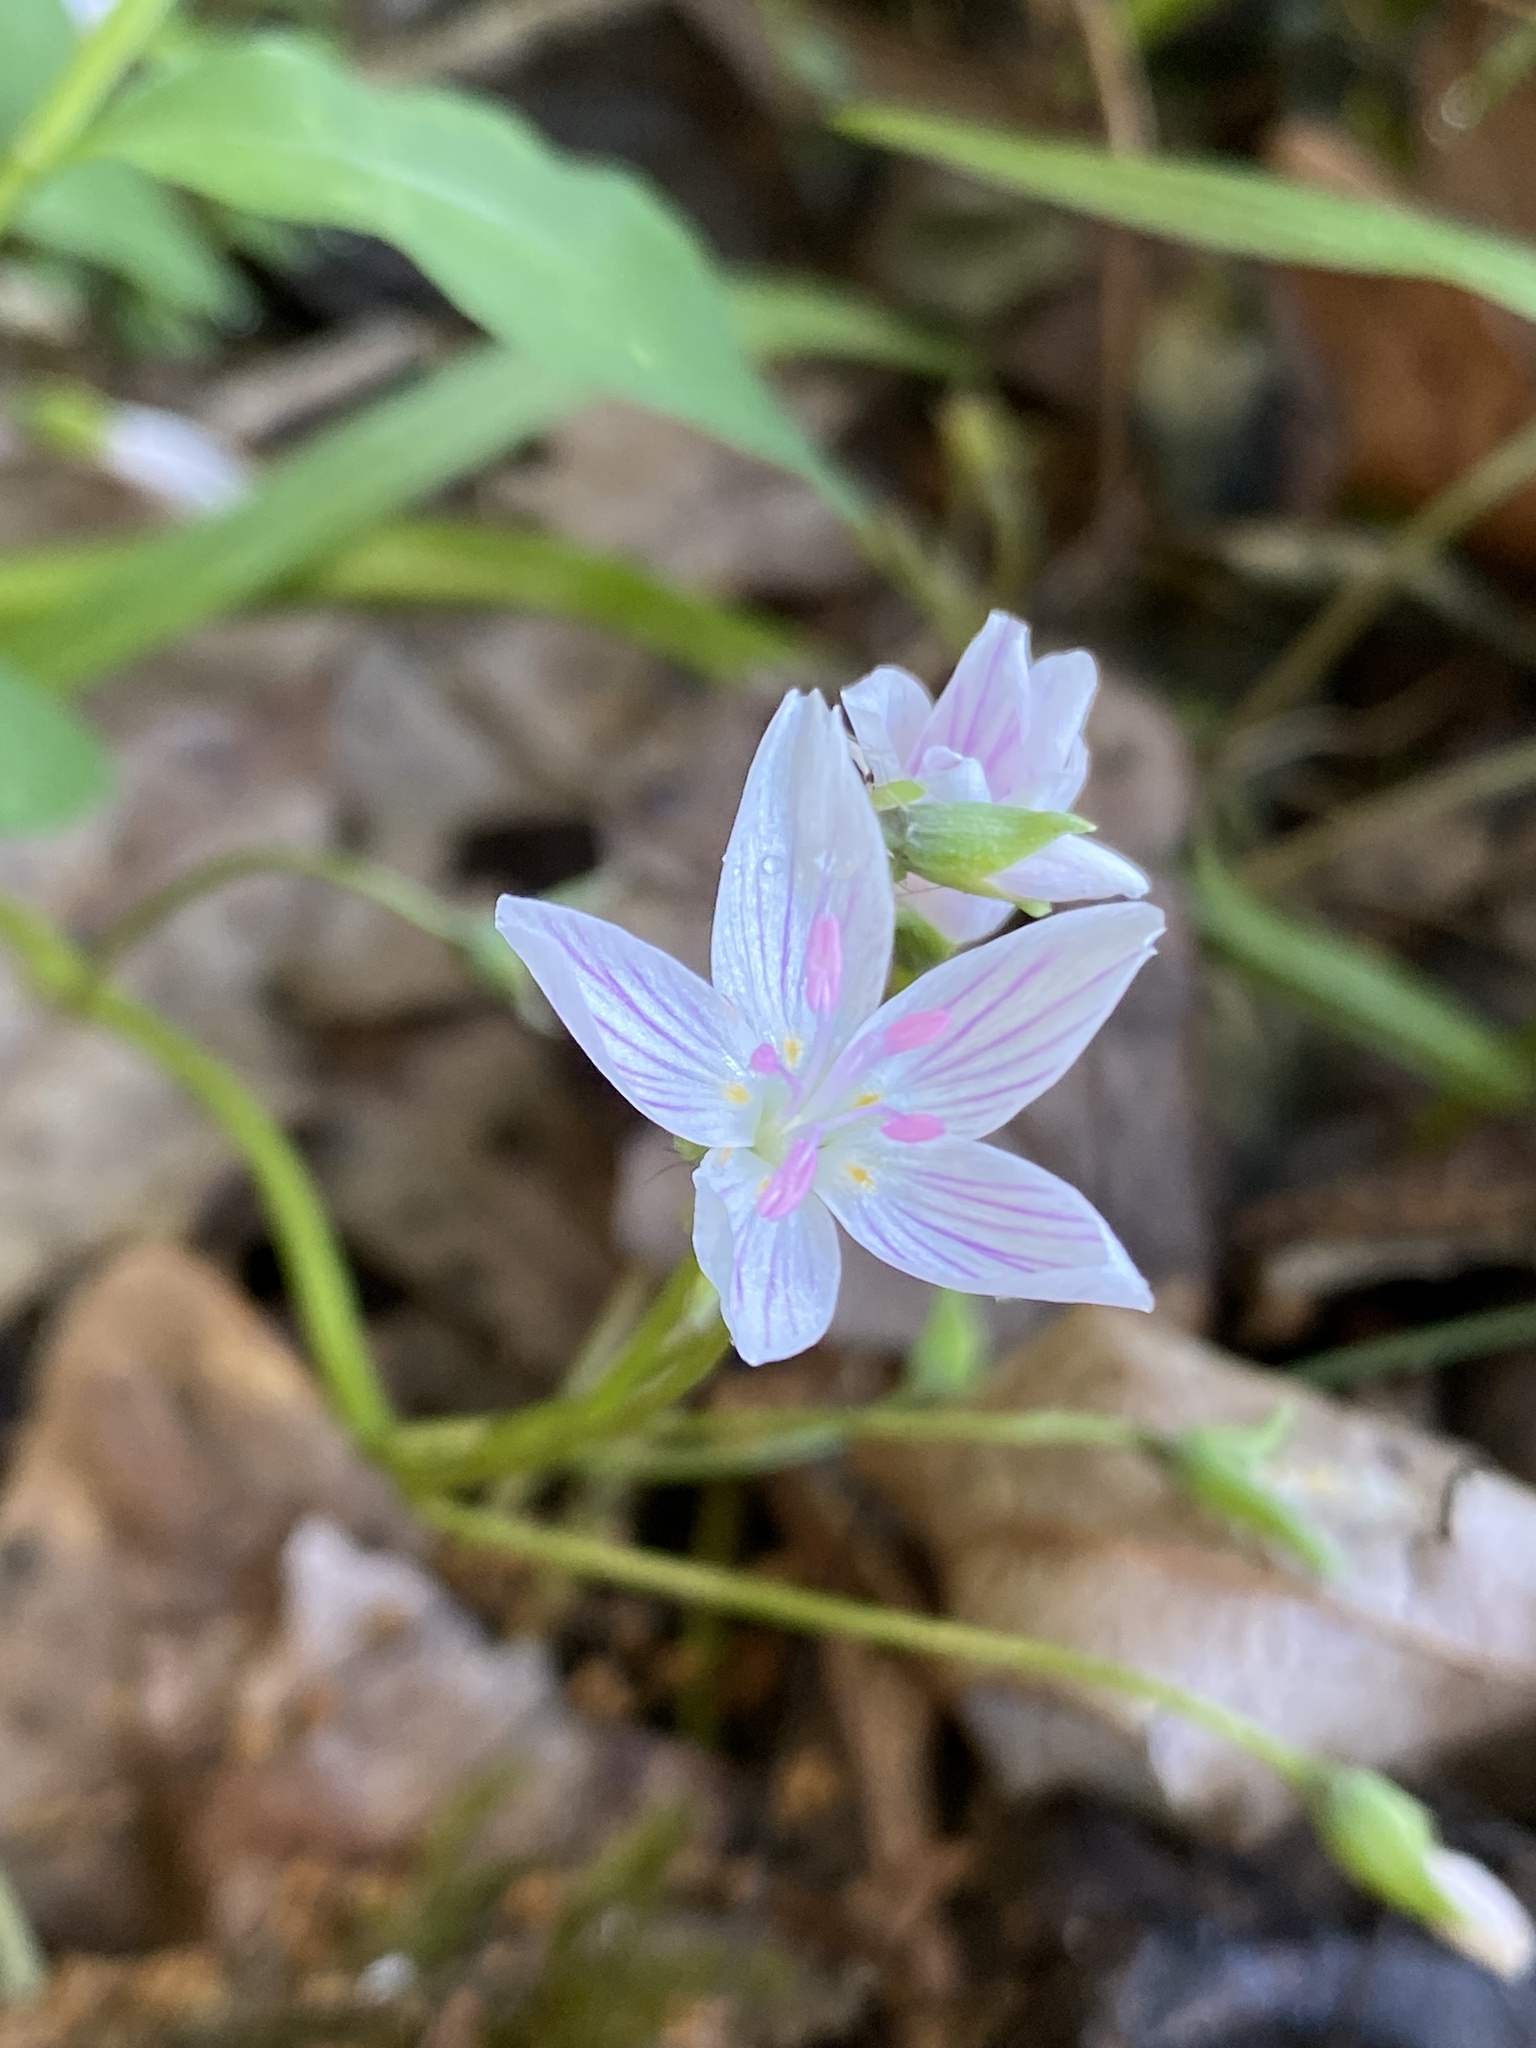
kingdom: Plantae
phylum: Tracheophyta
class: Magnoliopsida
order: Caryophyllales
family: Montiaceae
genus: Claytonia
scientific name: Claytonia virginica
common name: Virginia springbeauty
